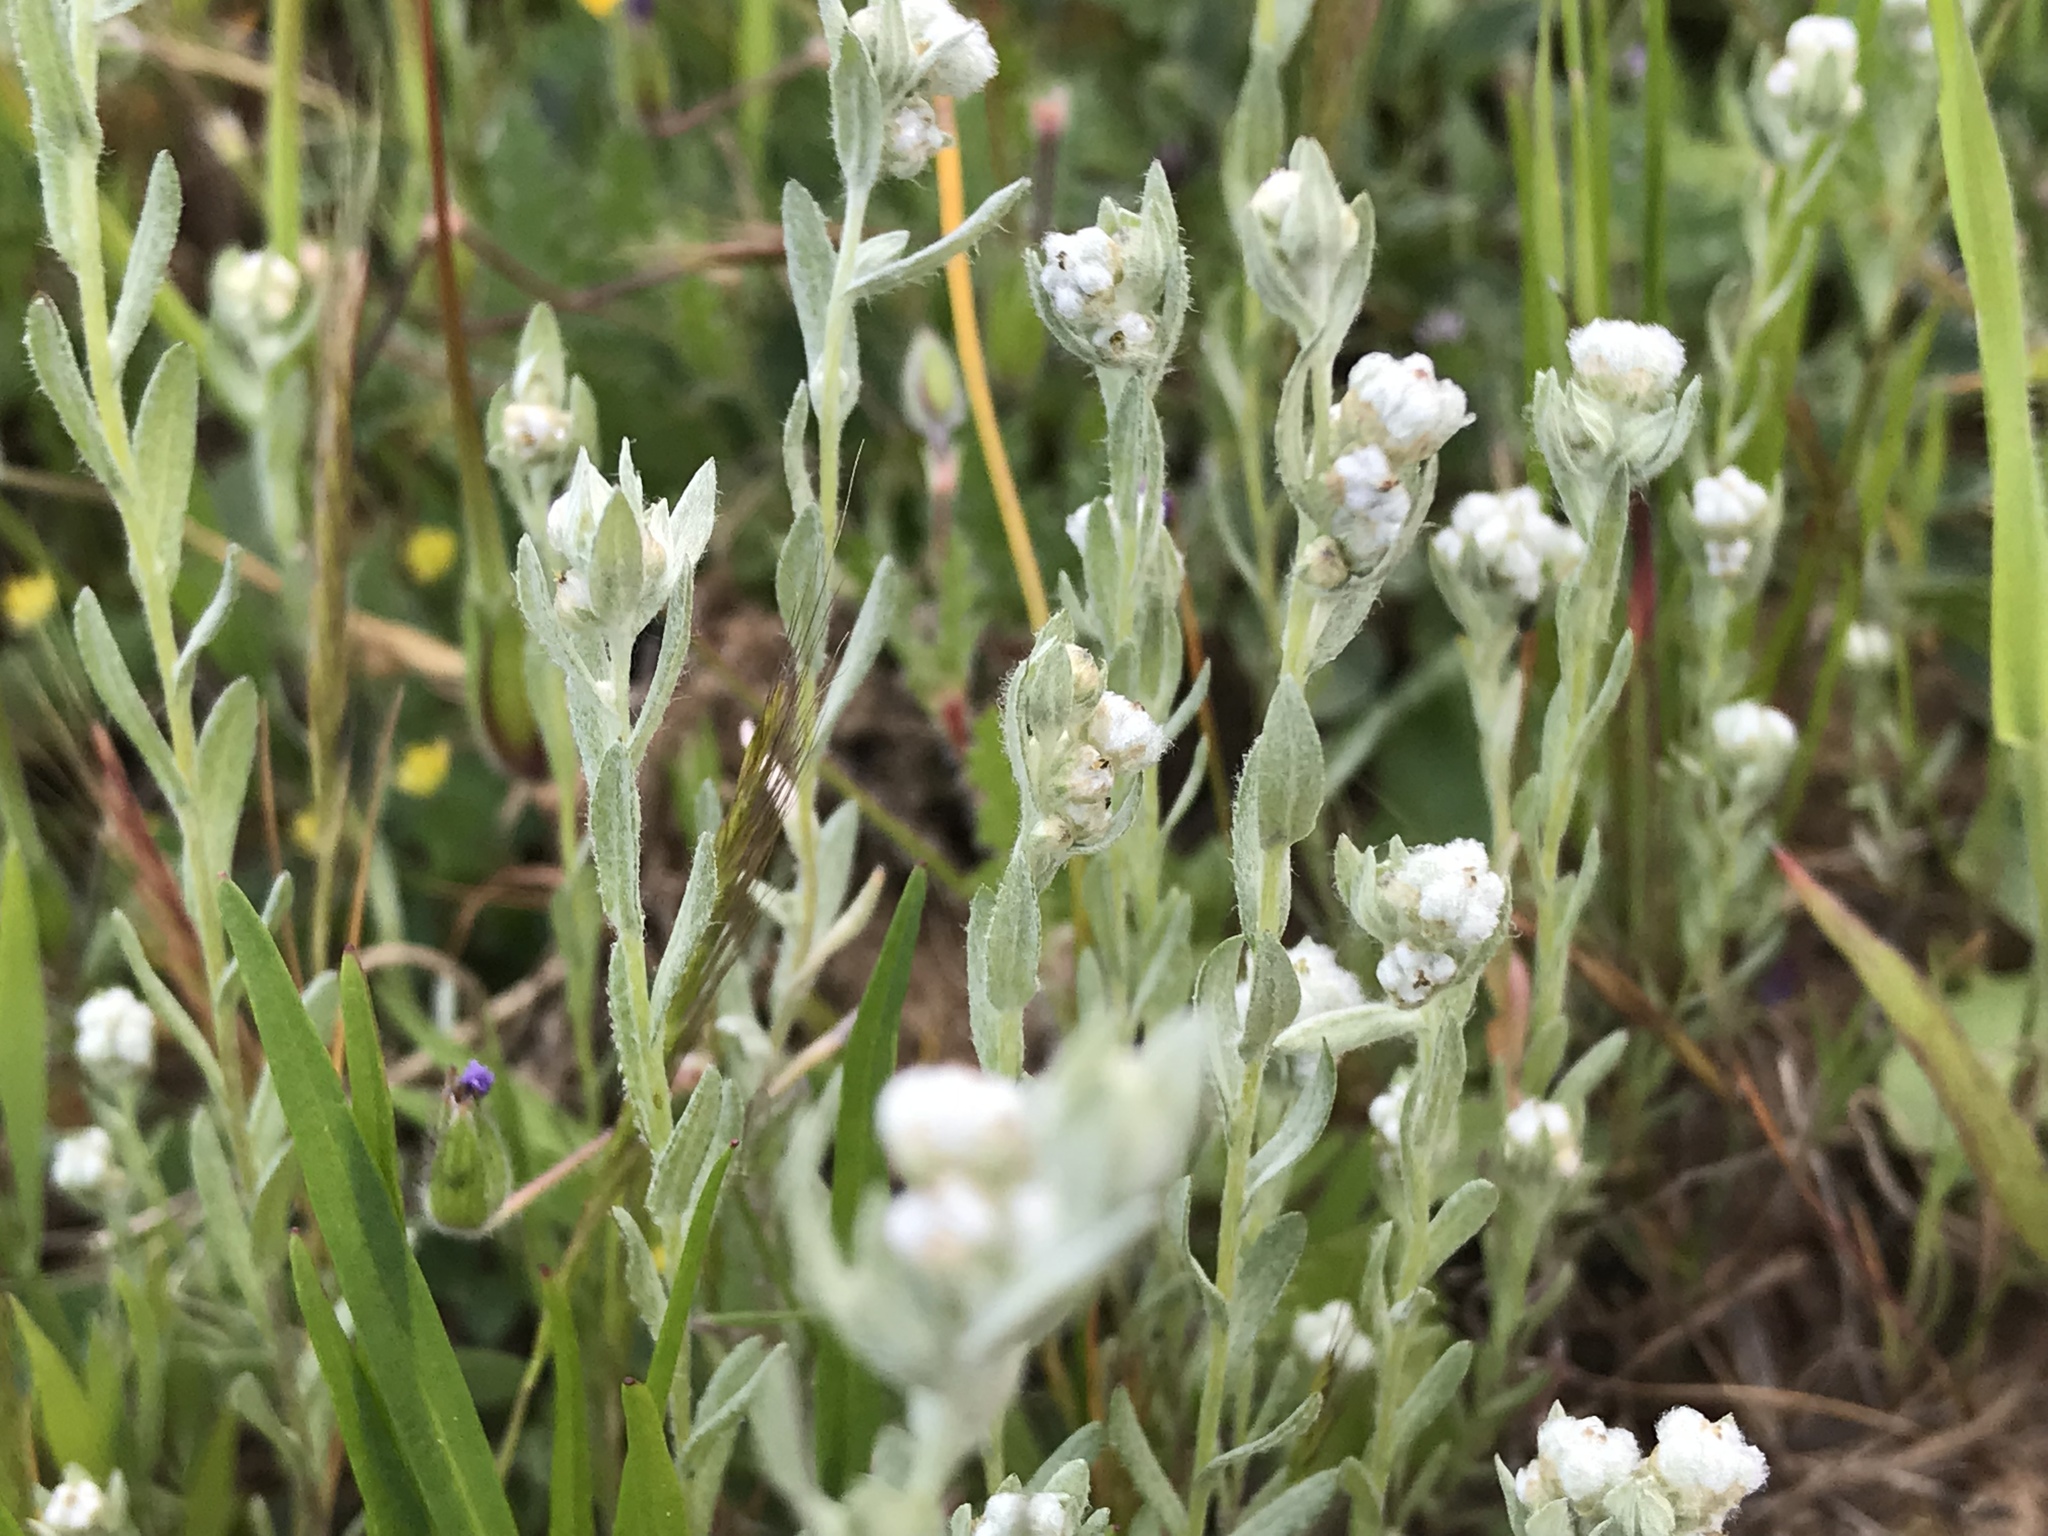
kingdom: Plantae
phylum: Tracheophyta
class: Magnoliopsida
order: Asterales
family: Asteraceae
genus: Bombycilaena
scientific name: Bombycilaena californica
